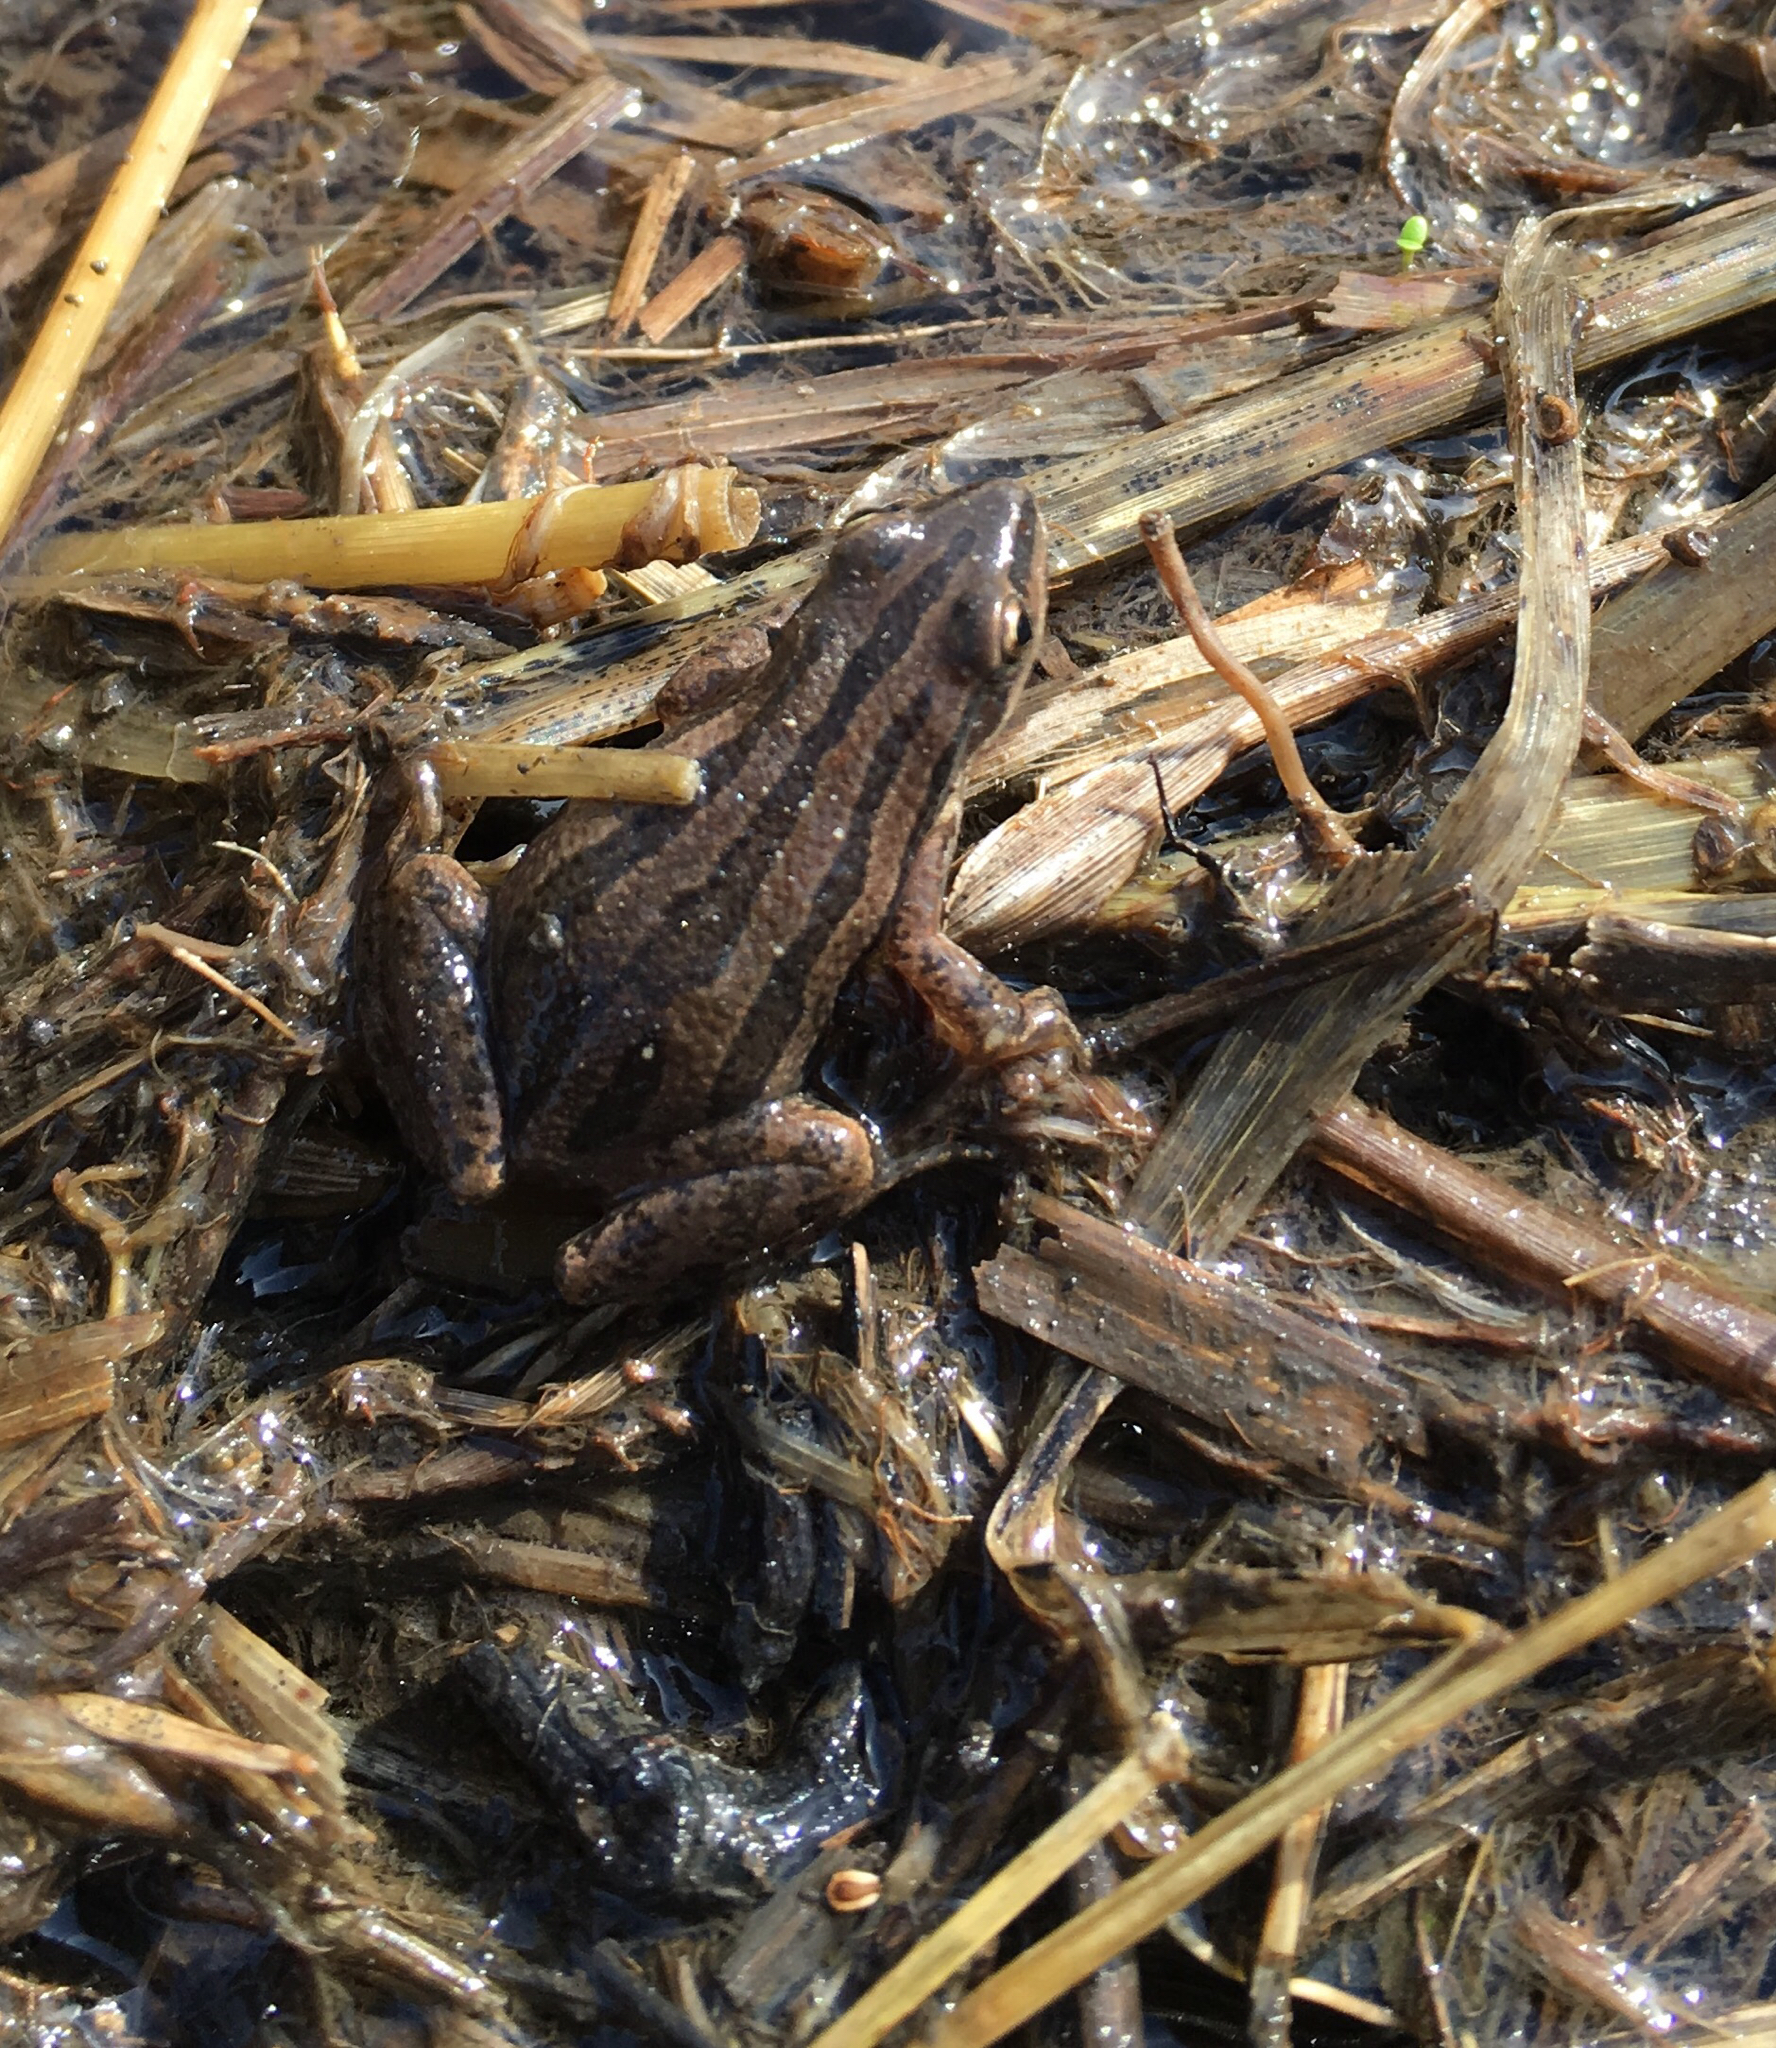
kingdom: Animalia
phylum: Chordata
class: Amphibia
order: Anura
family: Hylidae
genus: Pseudacris
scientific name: Pseudacris maculata
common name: Boreal chorus frog
